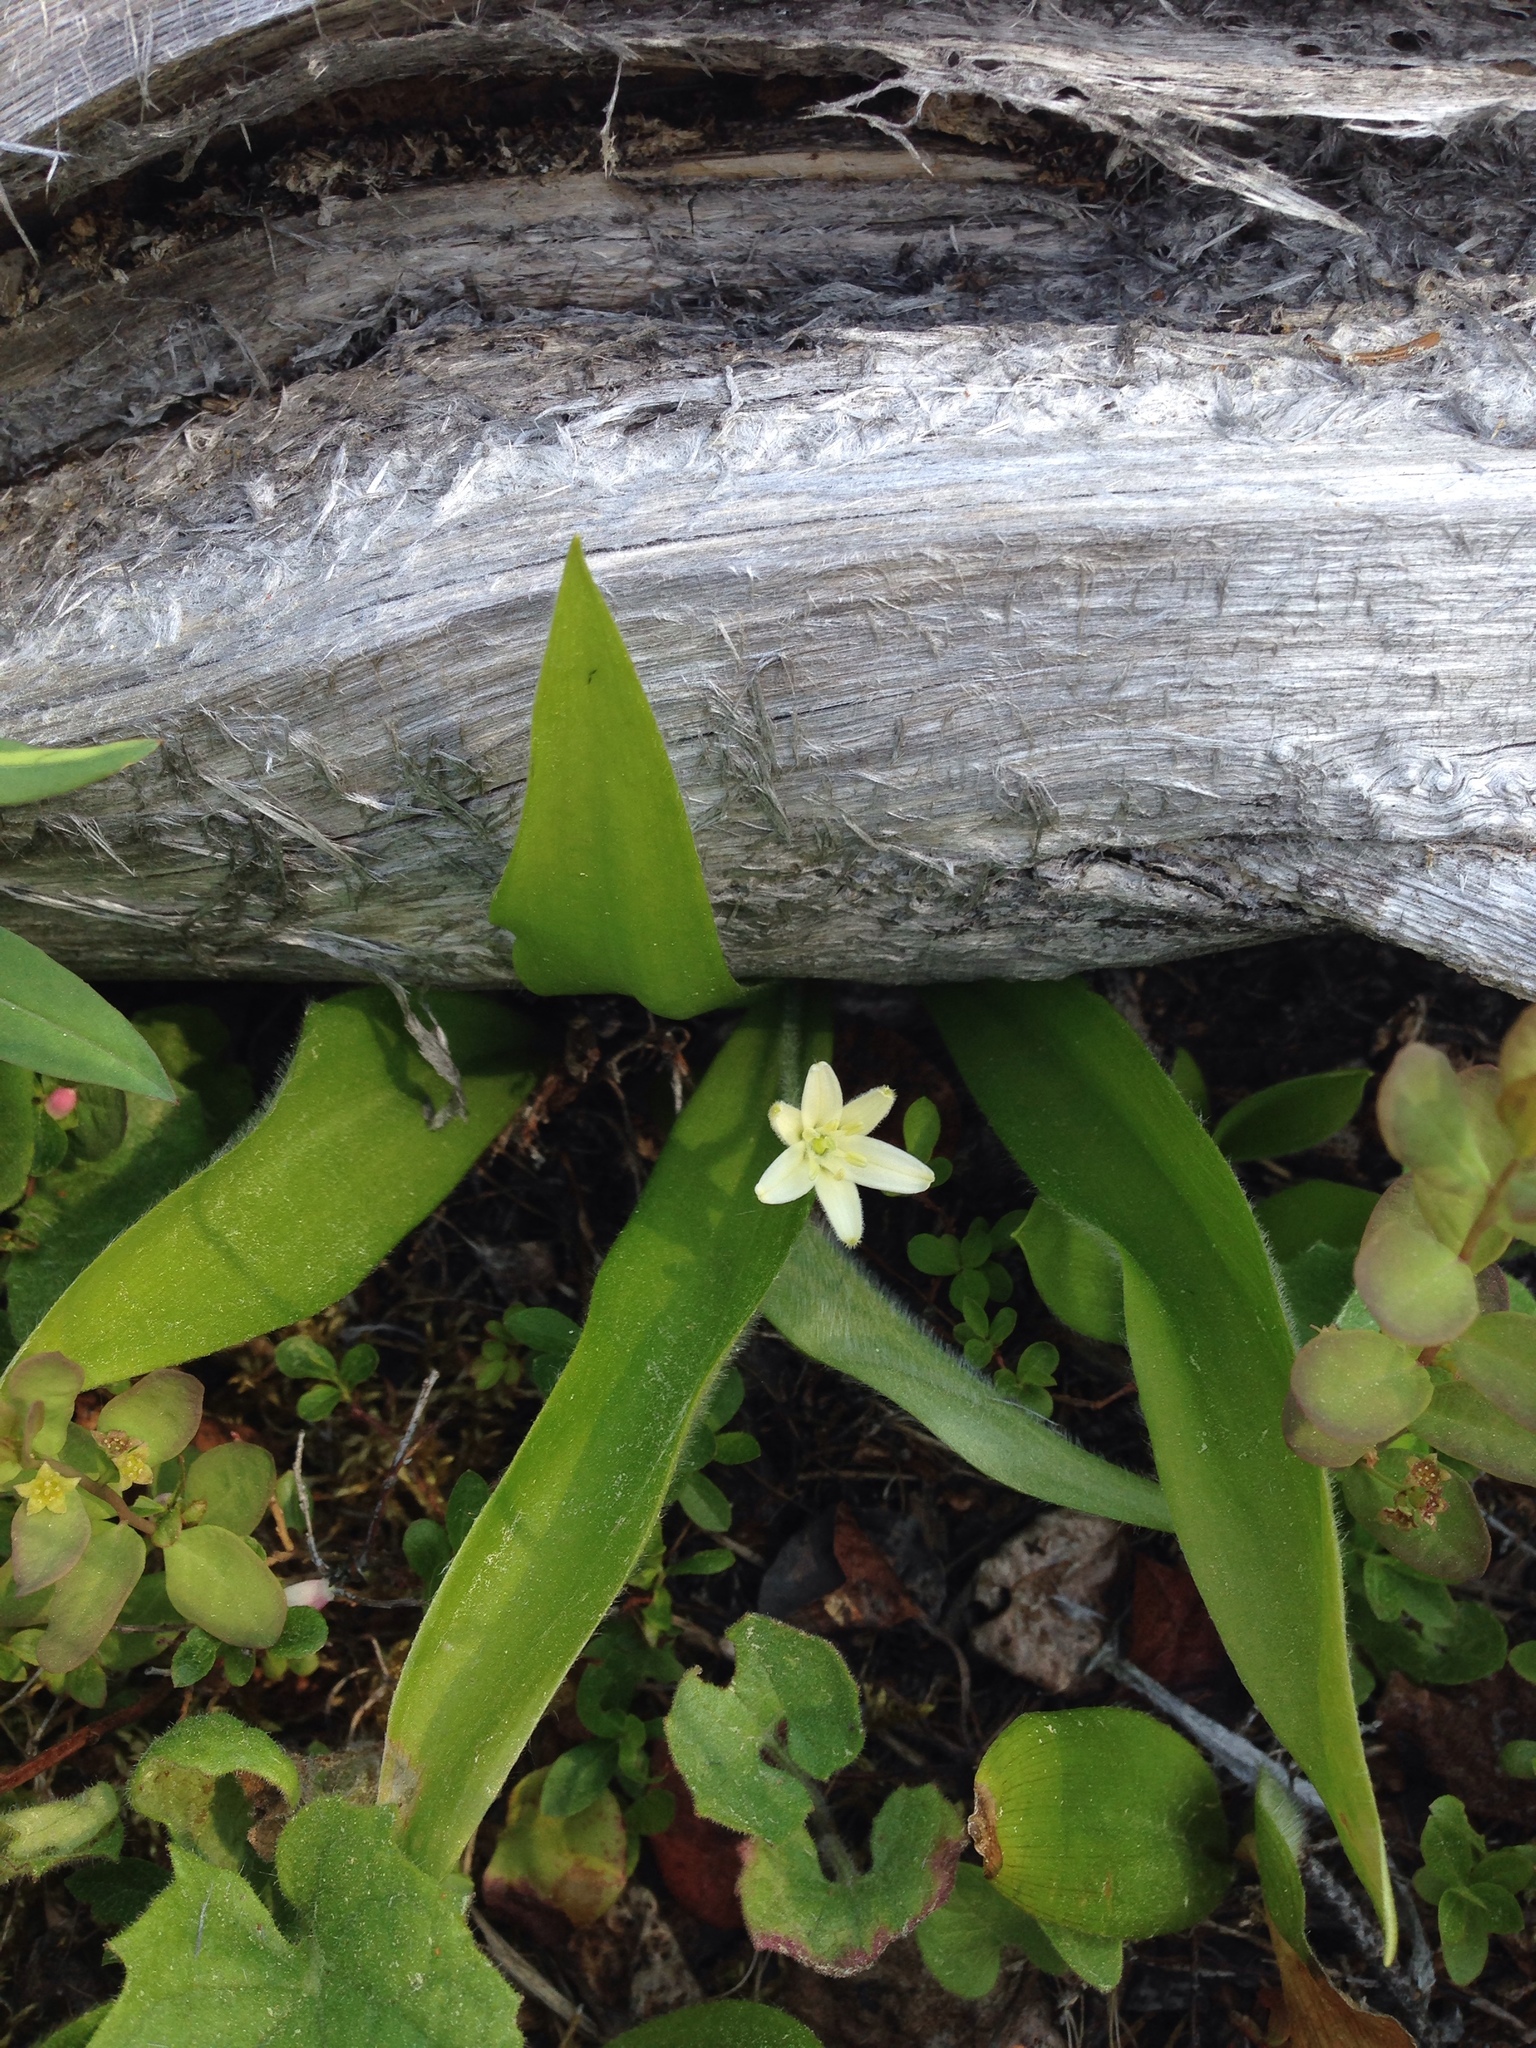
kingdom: Plantae
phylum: Tracheophyta
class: Liliopsida
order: Liliales
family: Liliaceae
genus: Clintonia
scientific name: Clintonia uniflora
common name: Queen's cup
